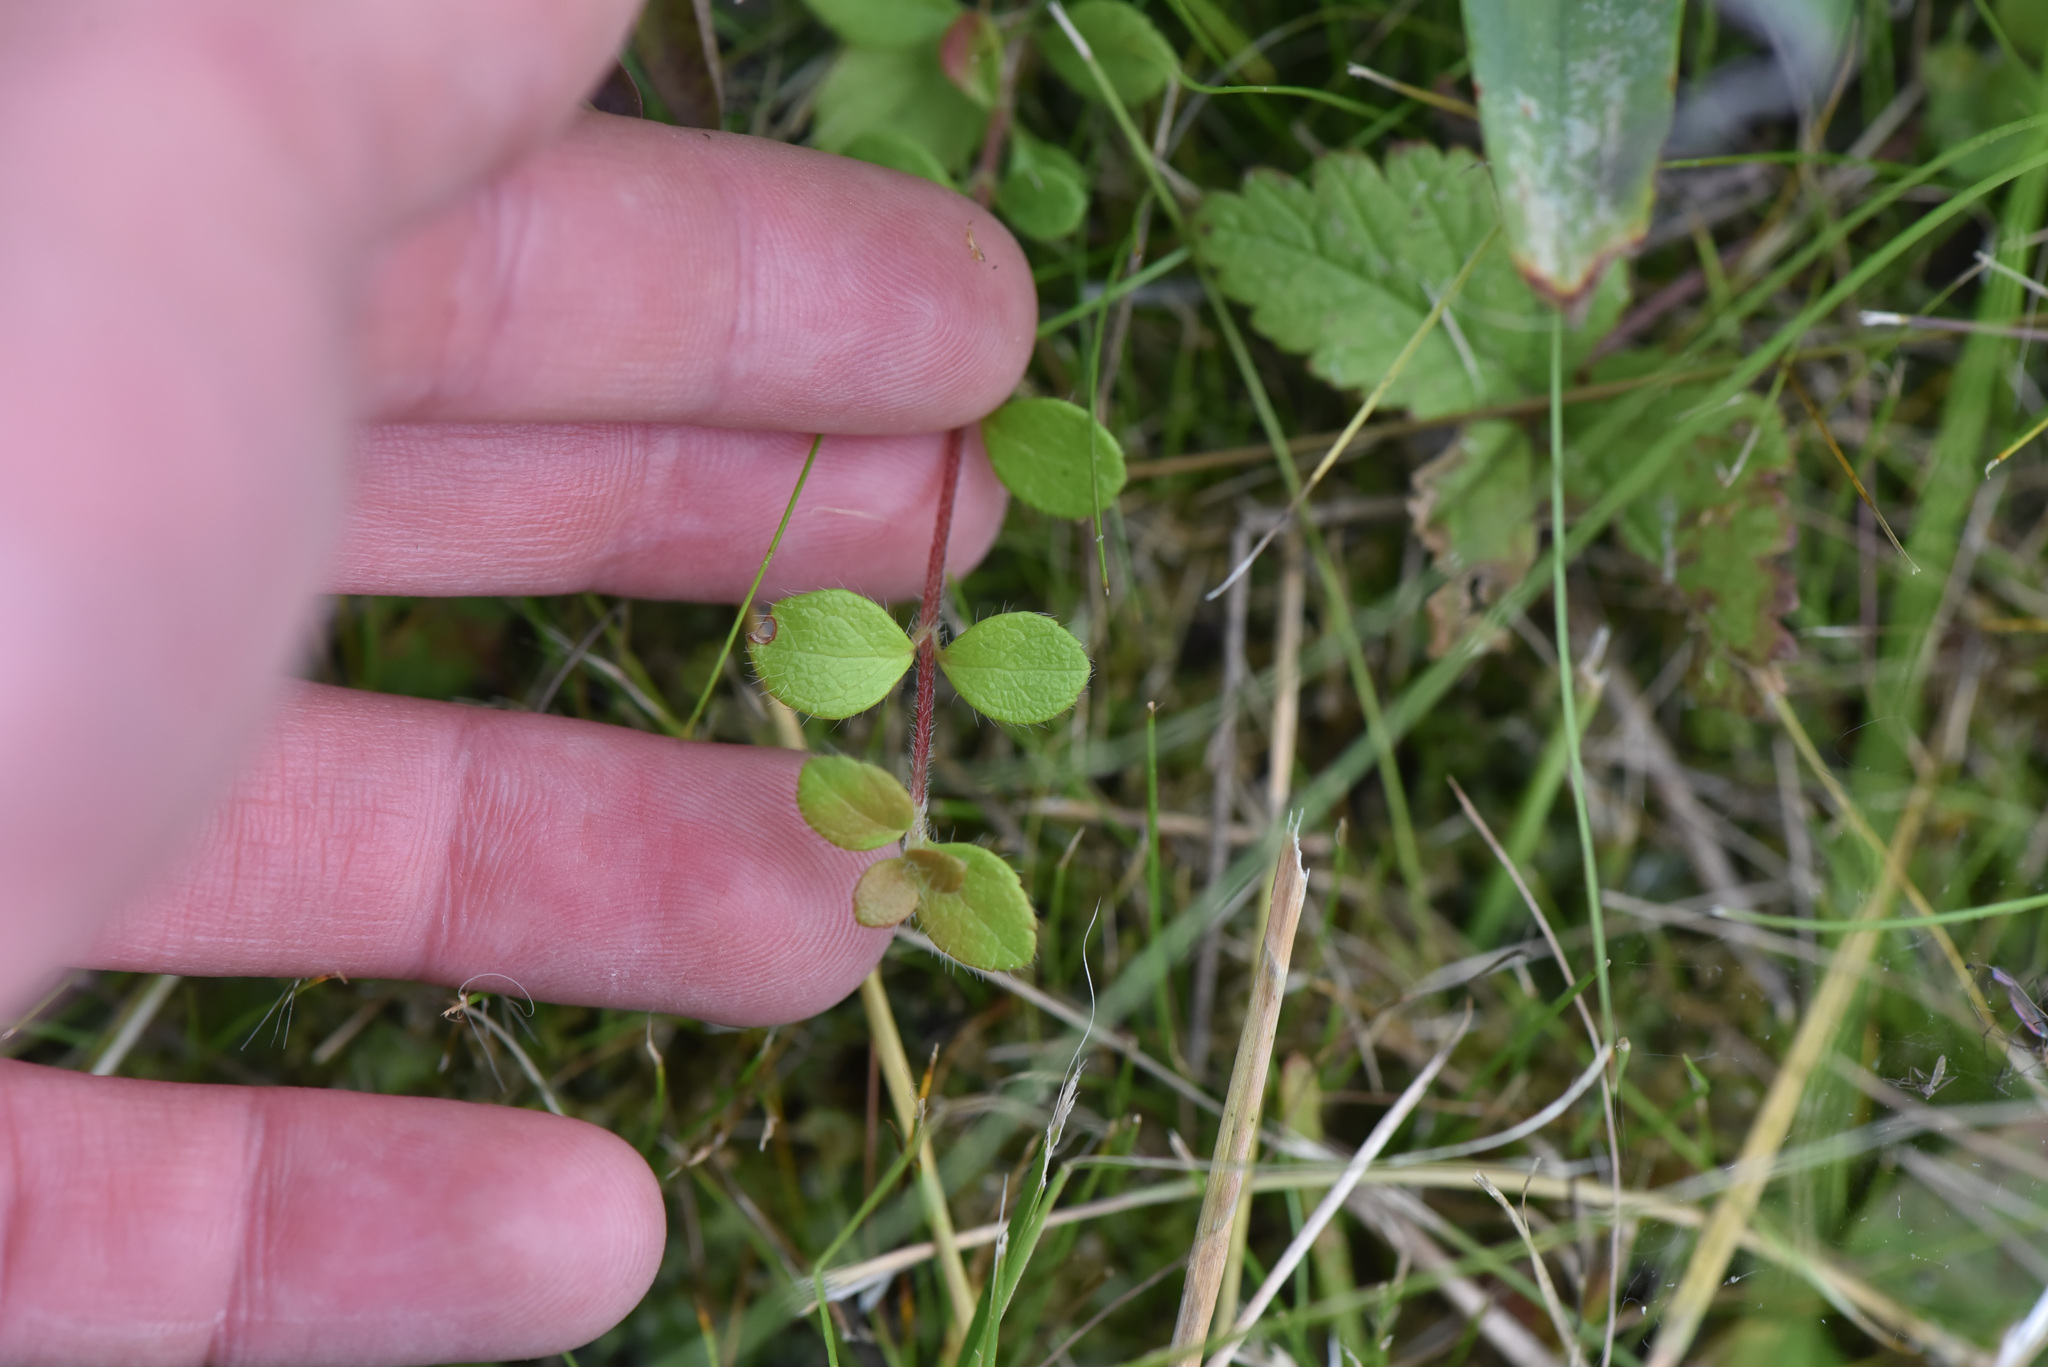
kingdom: Plantae
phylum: Tracheophyta
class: Magnoliopsida
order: Dipsacales
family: Caprifoliaceae
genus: Linnaea
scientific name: Linnaea borealis
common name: Twinflower
